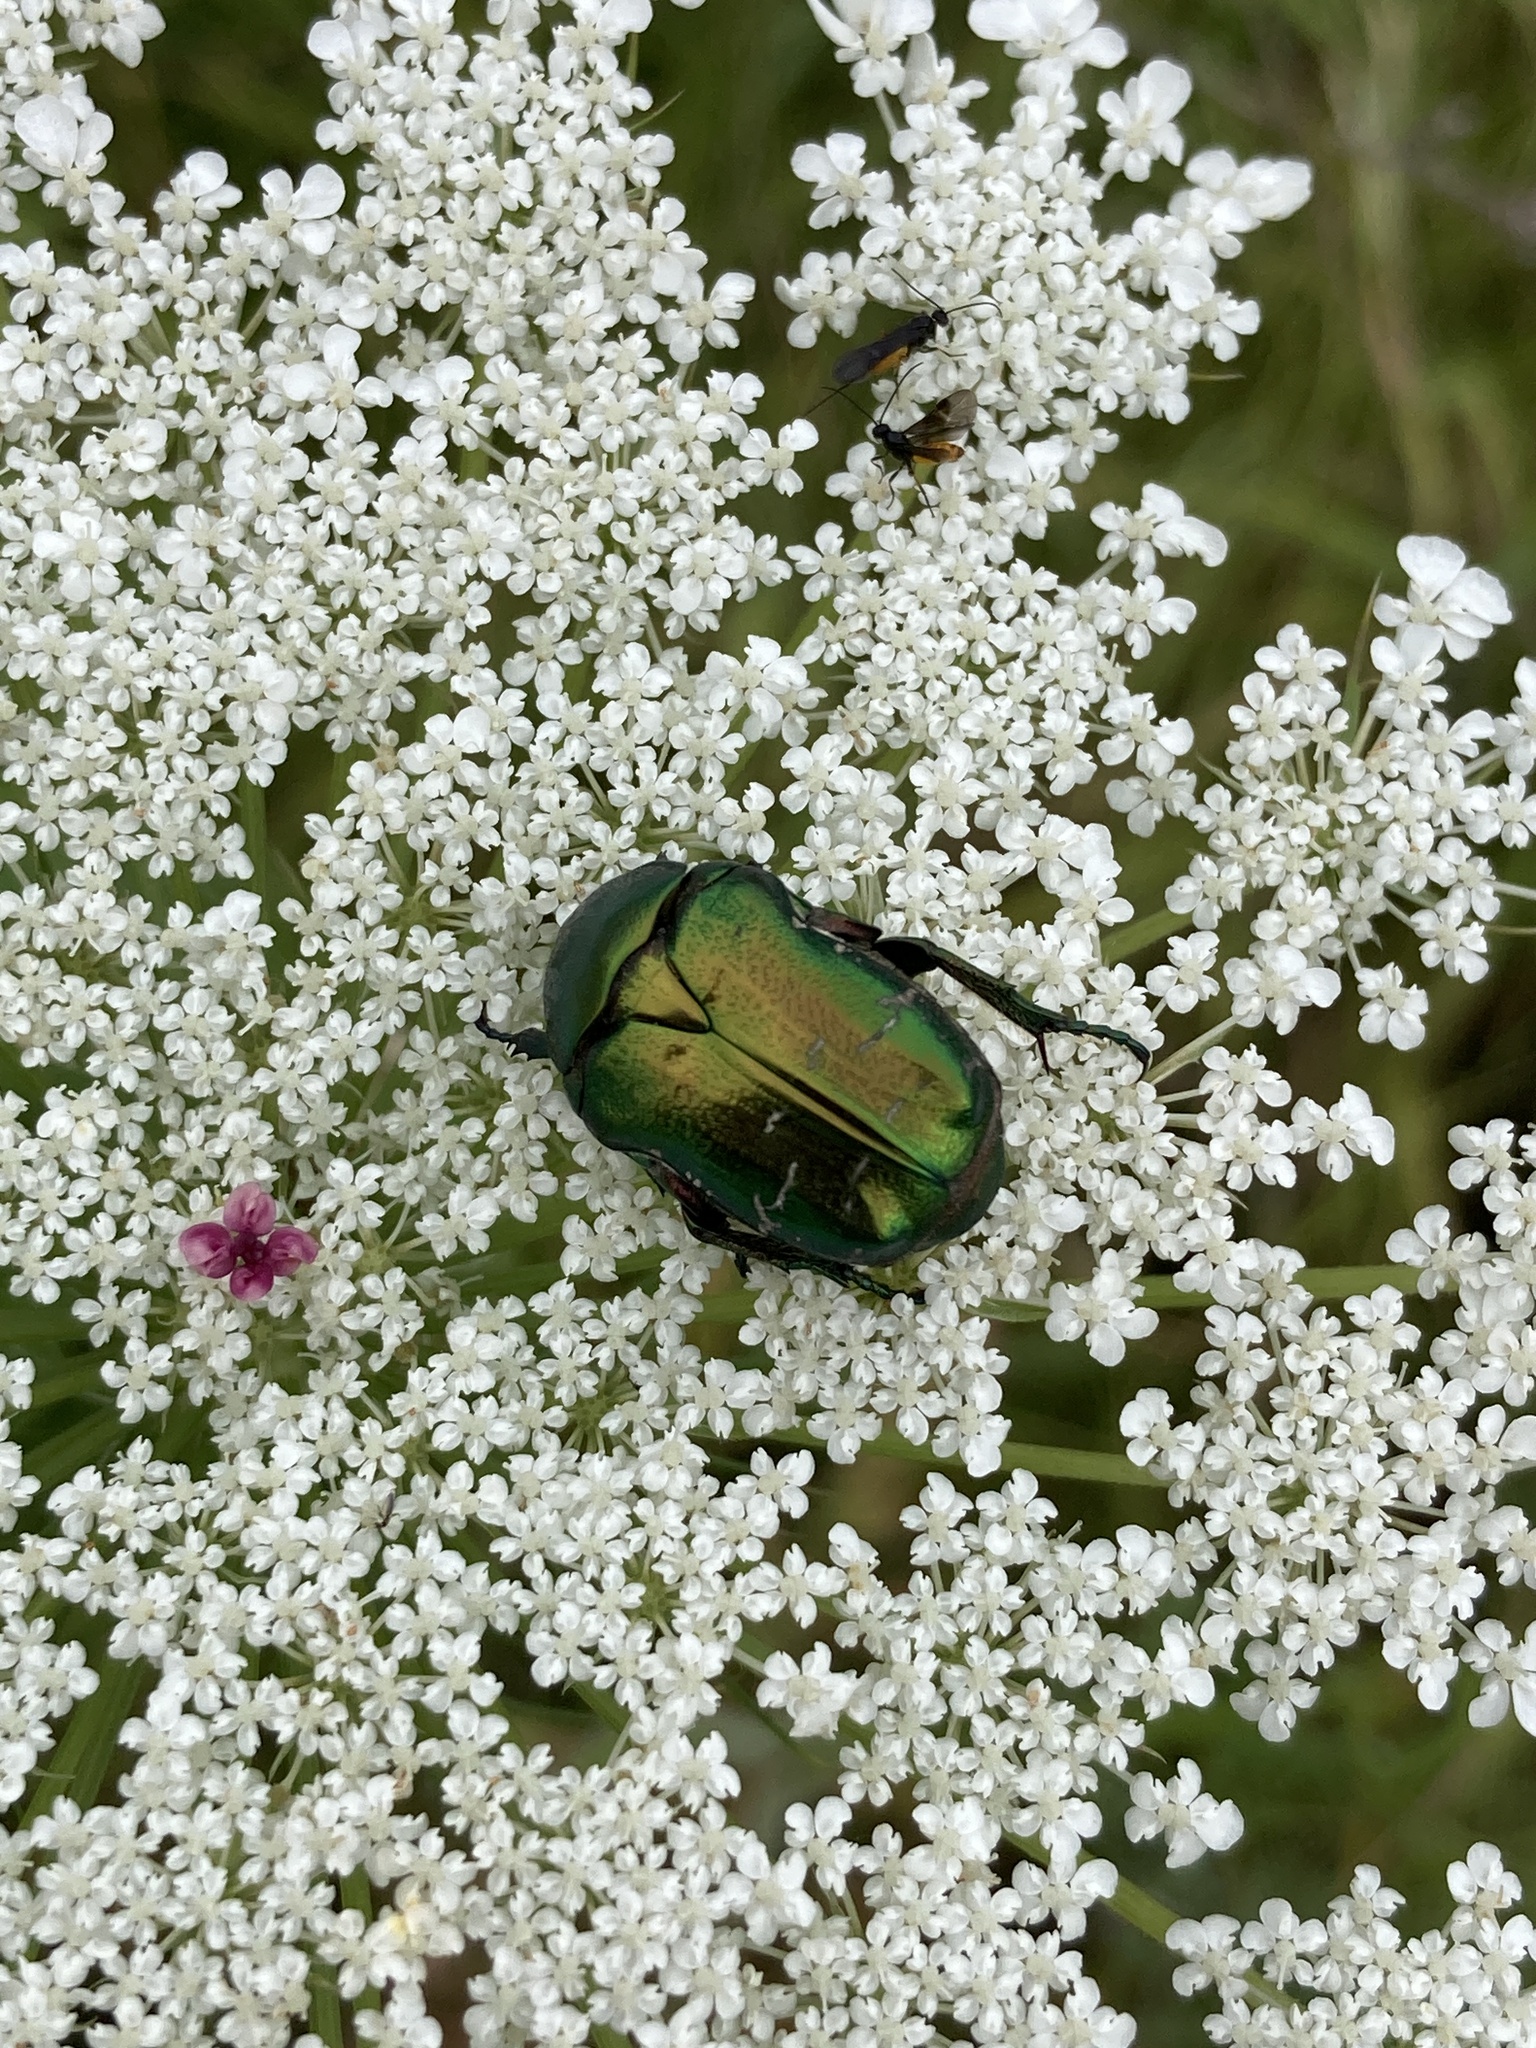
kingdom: Animalia
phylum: Arthropoda
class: Insecta
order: Coleoptera
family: Scarabaeidae
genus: Cetonia
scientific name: Cetonia aurata
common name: Rose chafer
